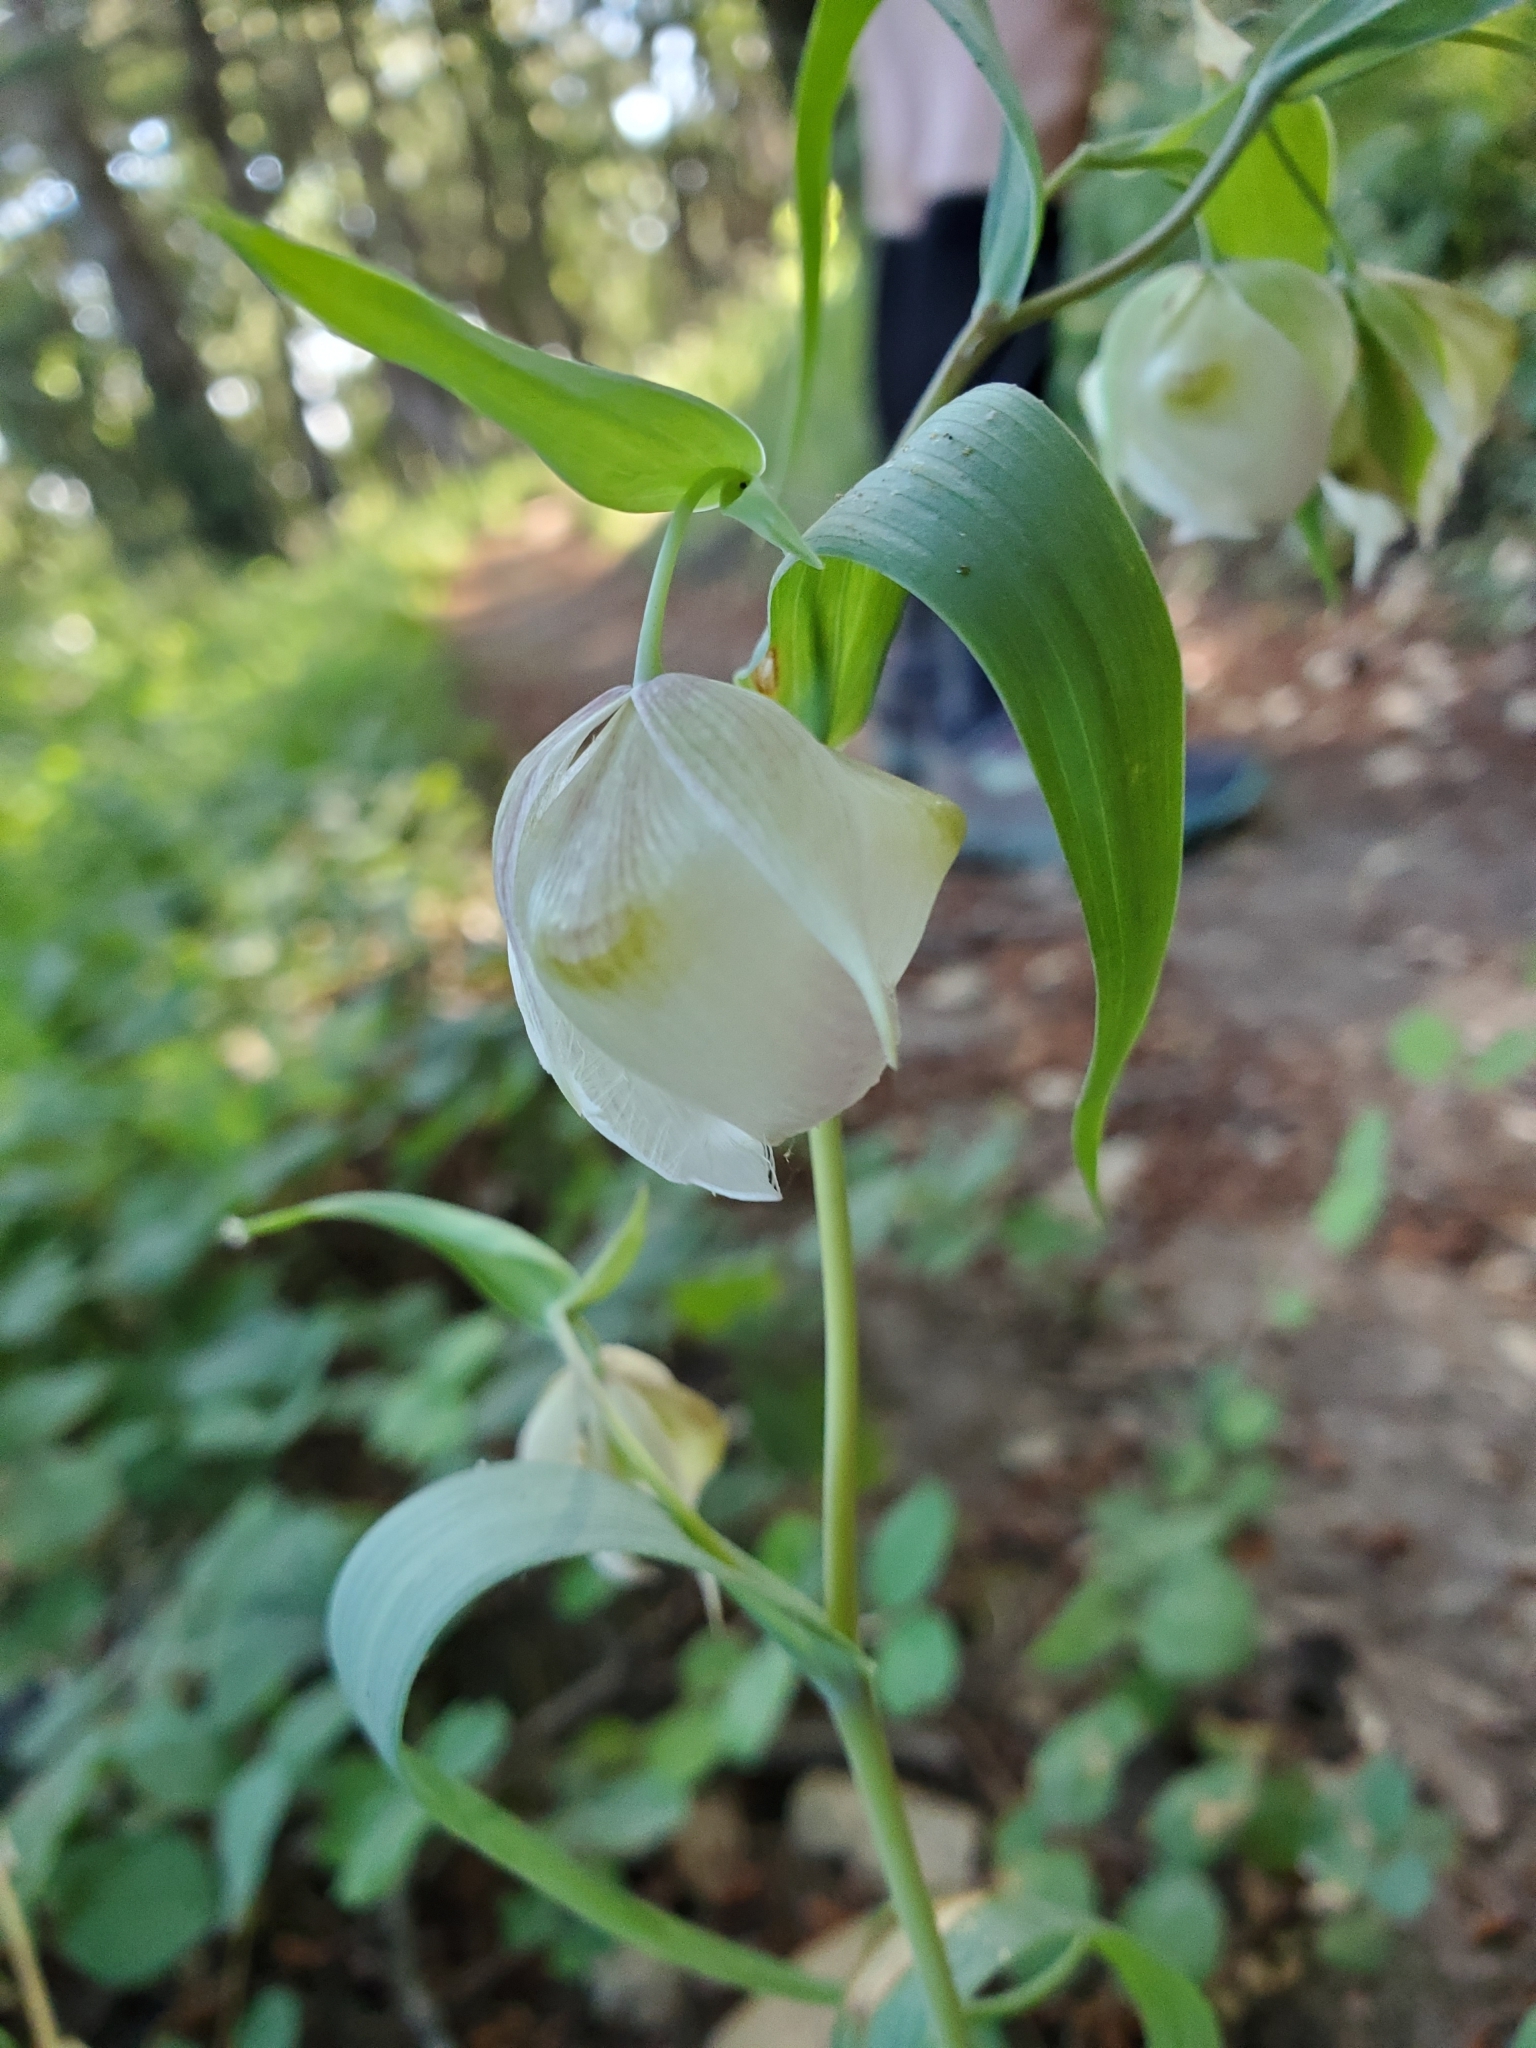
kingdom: Plantae
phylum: Tracheophyta
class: Liliopsida
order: Liliales
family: Liliaceae
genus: Calochortus
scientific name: Calochortus albus
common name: Fairy-lantern
